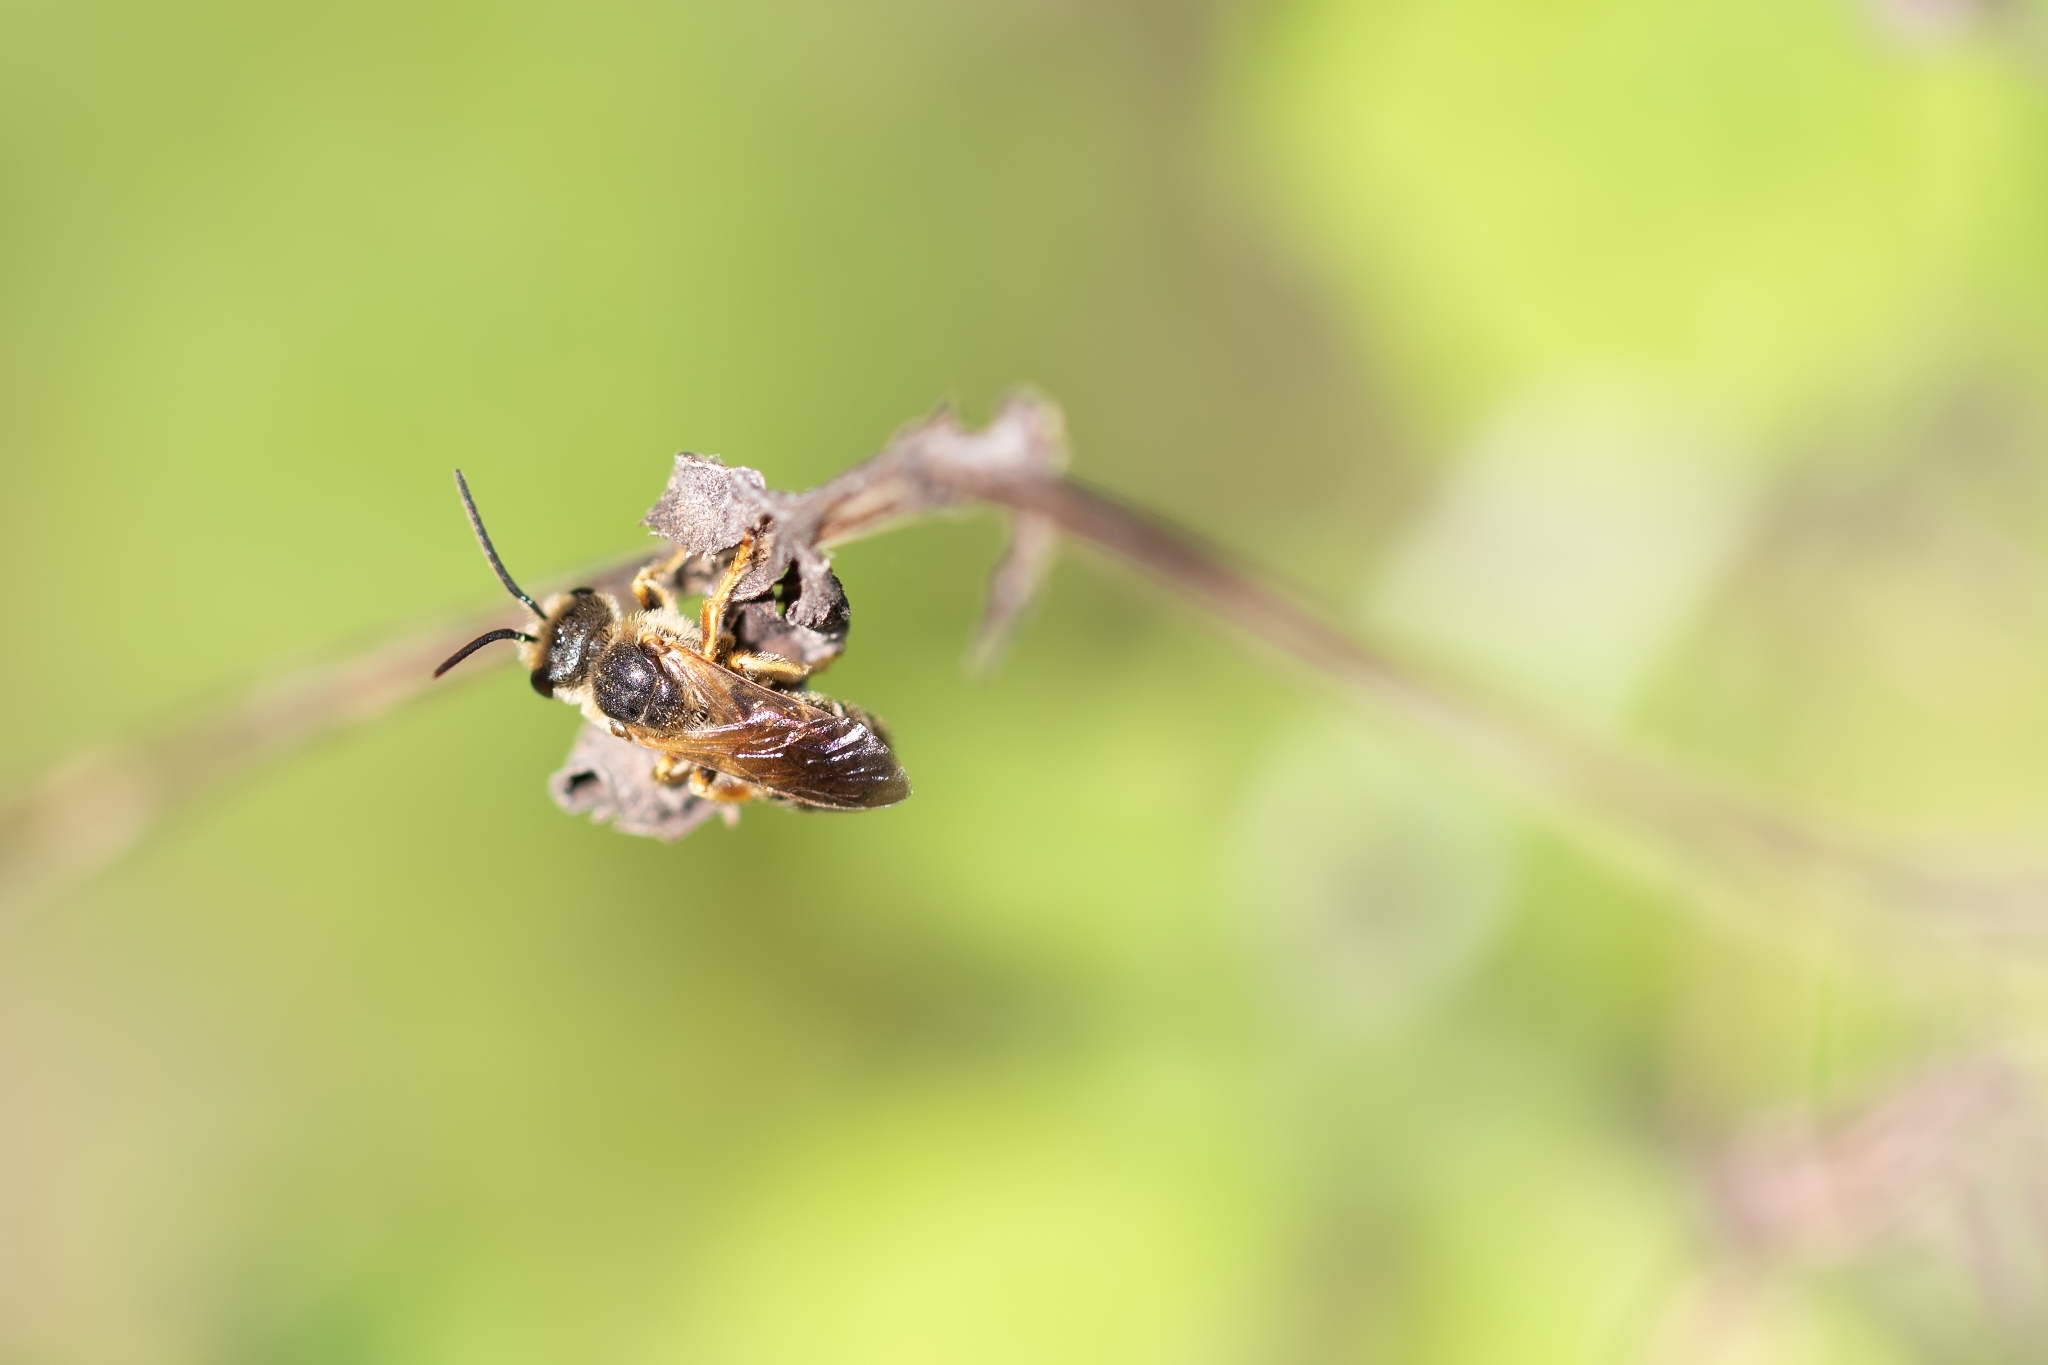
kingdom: Animalia
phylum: Arthropoda
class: Insecta
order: Hymenoptera
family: Halictidae
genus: Halictus
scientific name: Halictus poeyi
